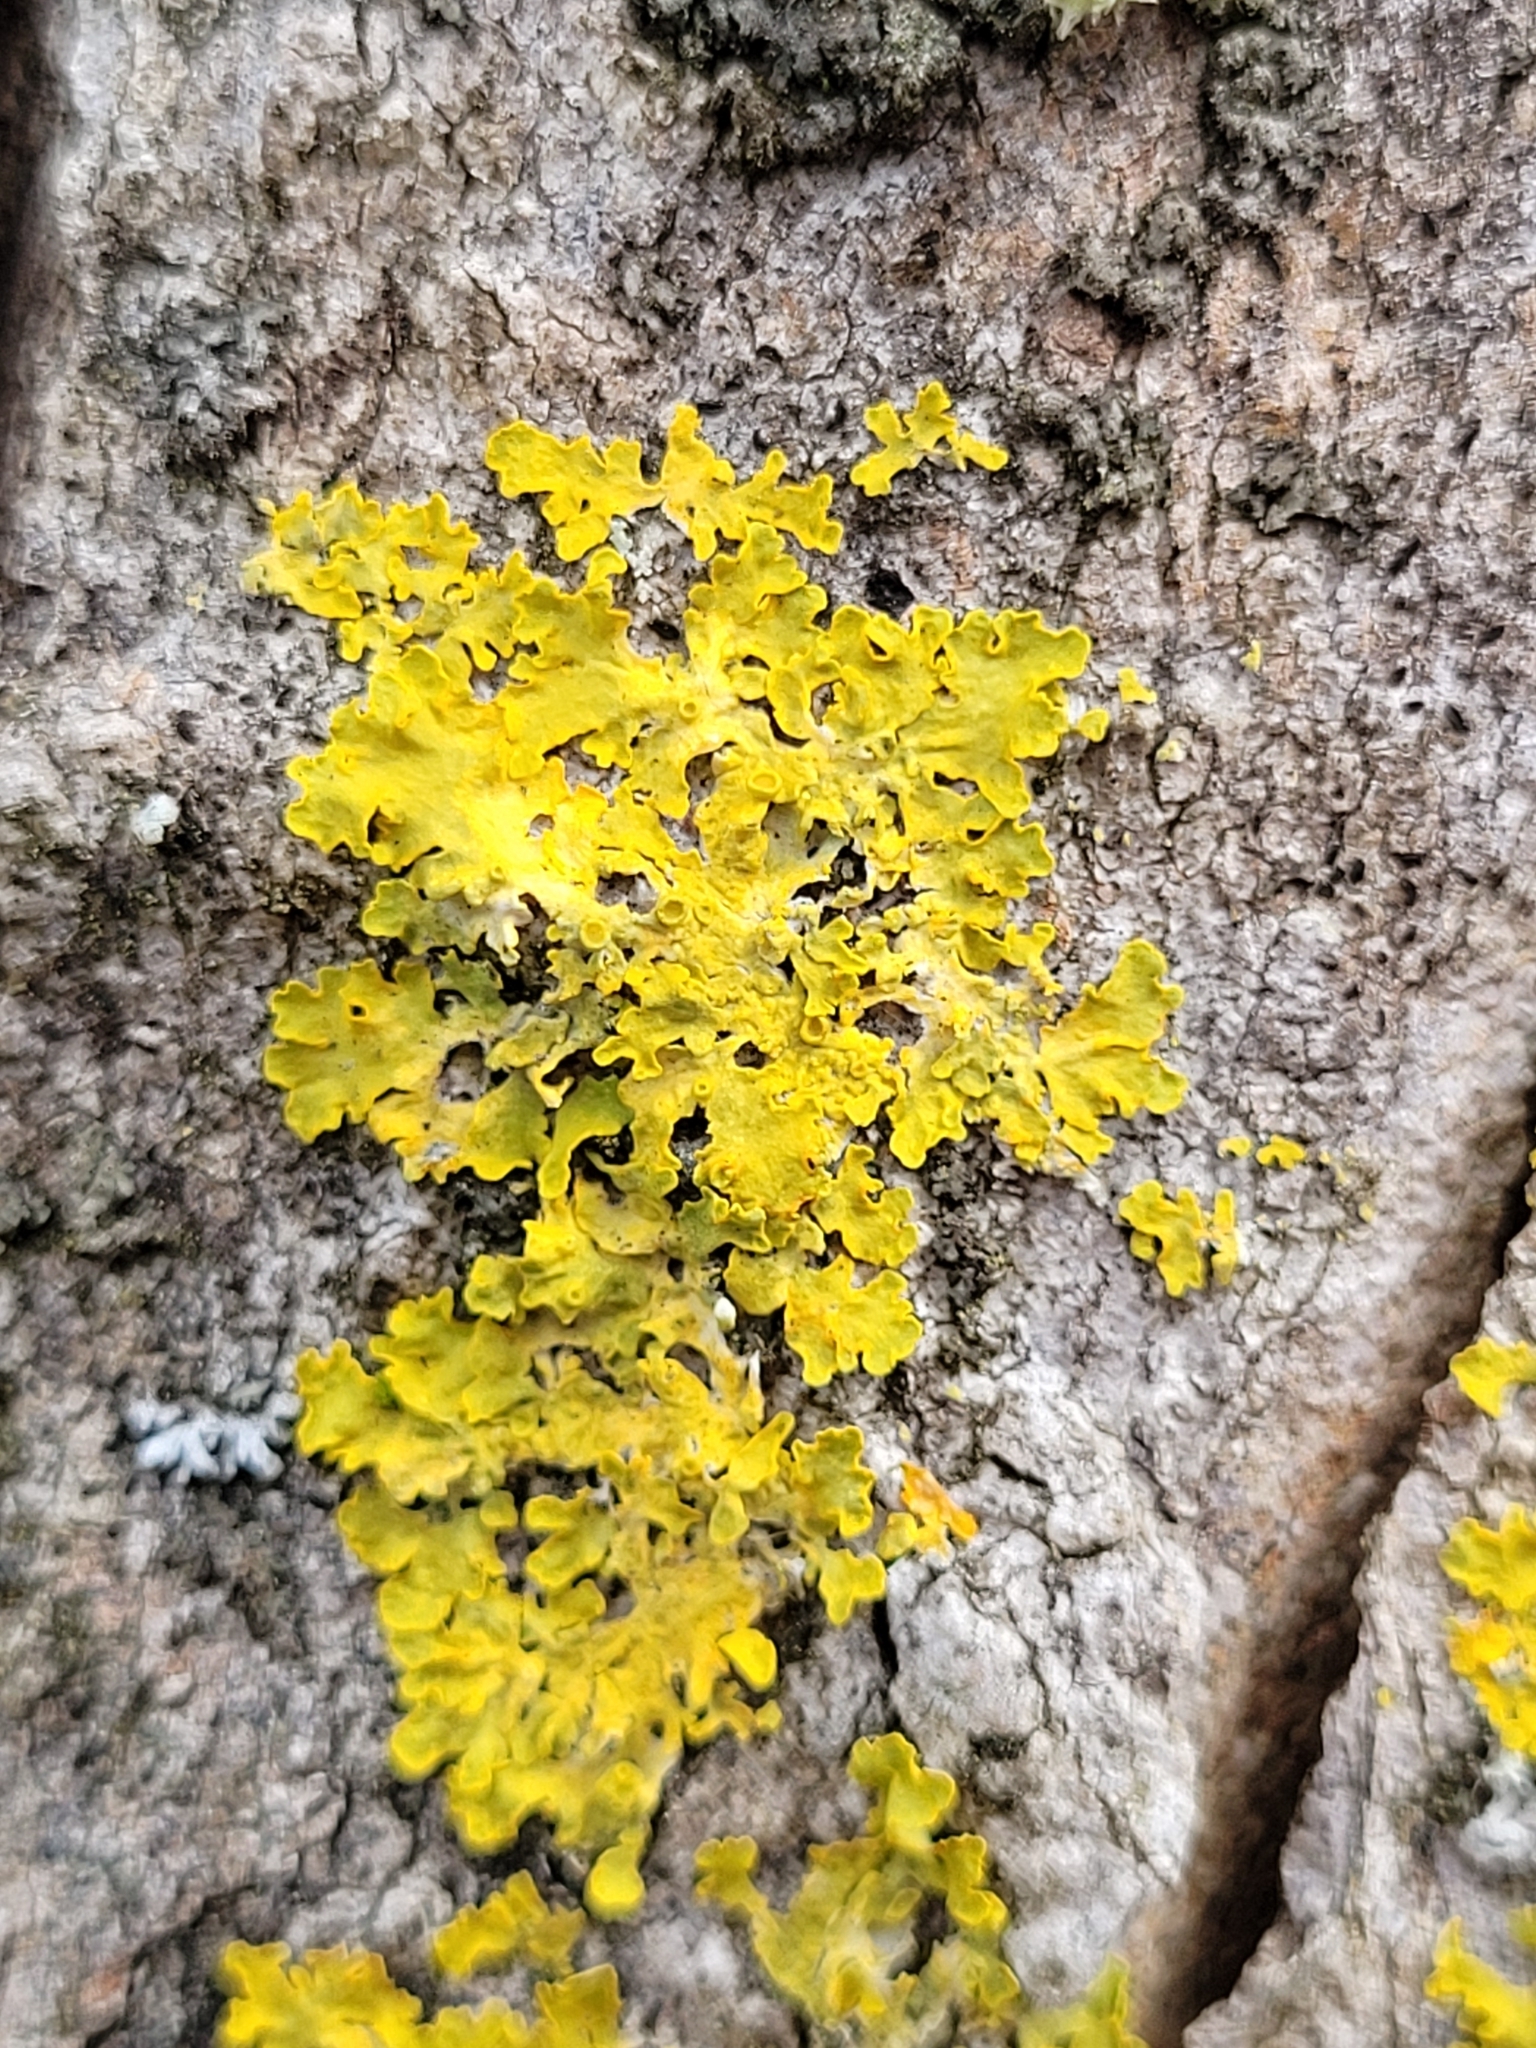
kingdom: Fungi
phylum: Ascomycota
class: Lecanoromycetes
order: Teloschistales
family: Teloschistaceae
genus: Xanthoria
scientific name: Xanthoria parietina
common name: Common orange lichen
